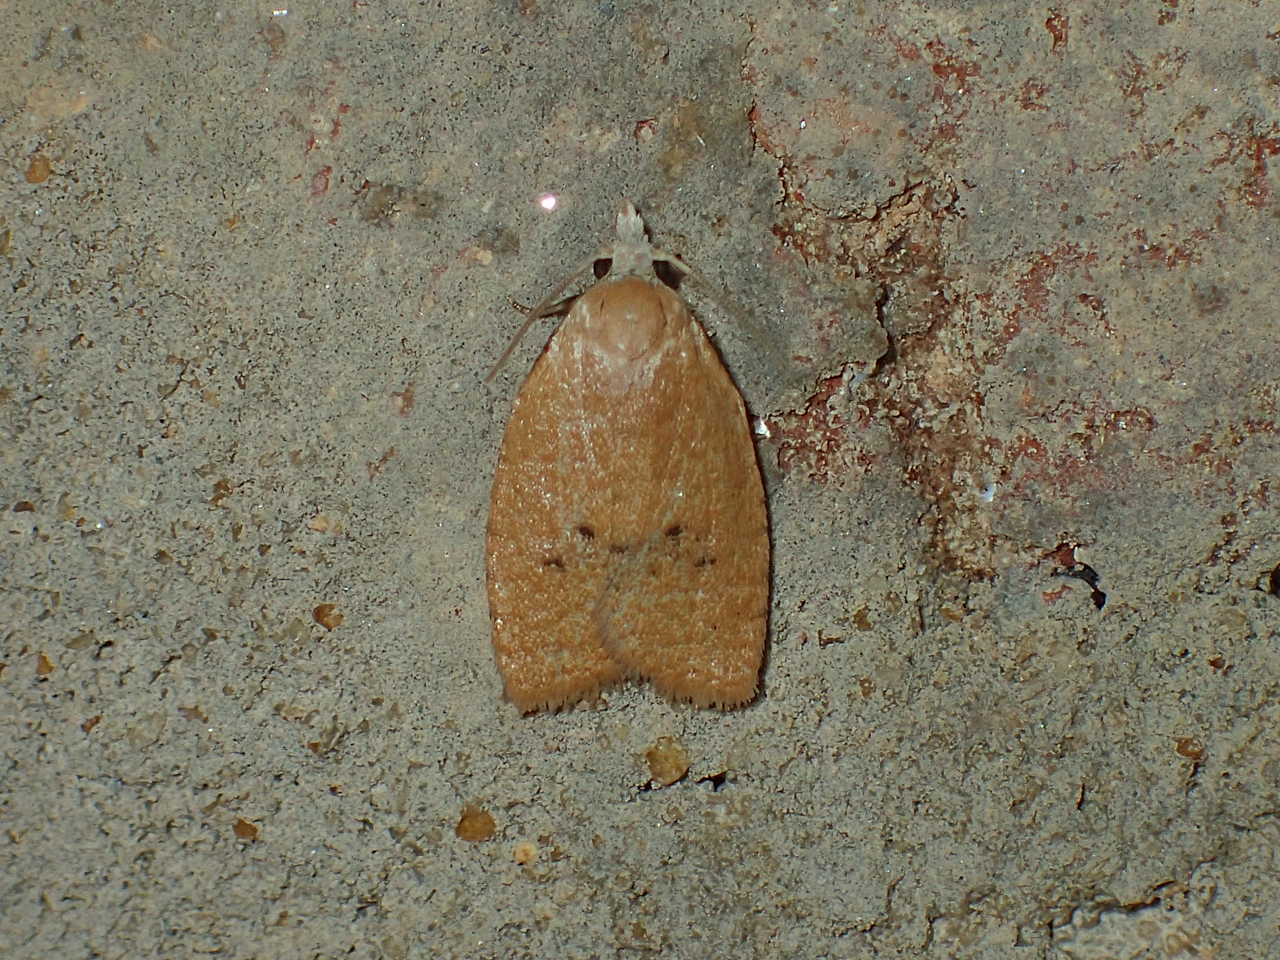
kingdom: Animalia
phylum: Arthropoda
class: Insecta
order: Lepidoptera
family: Tortricidae
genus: Sparganothoides
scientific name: Sparganothoides lentiginosana
